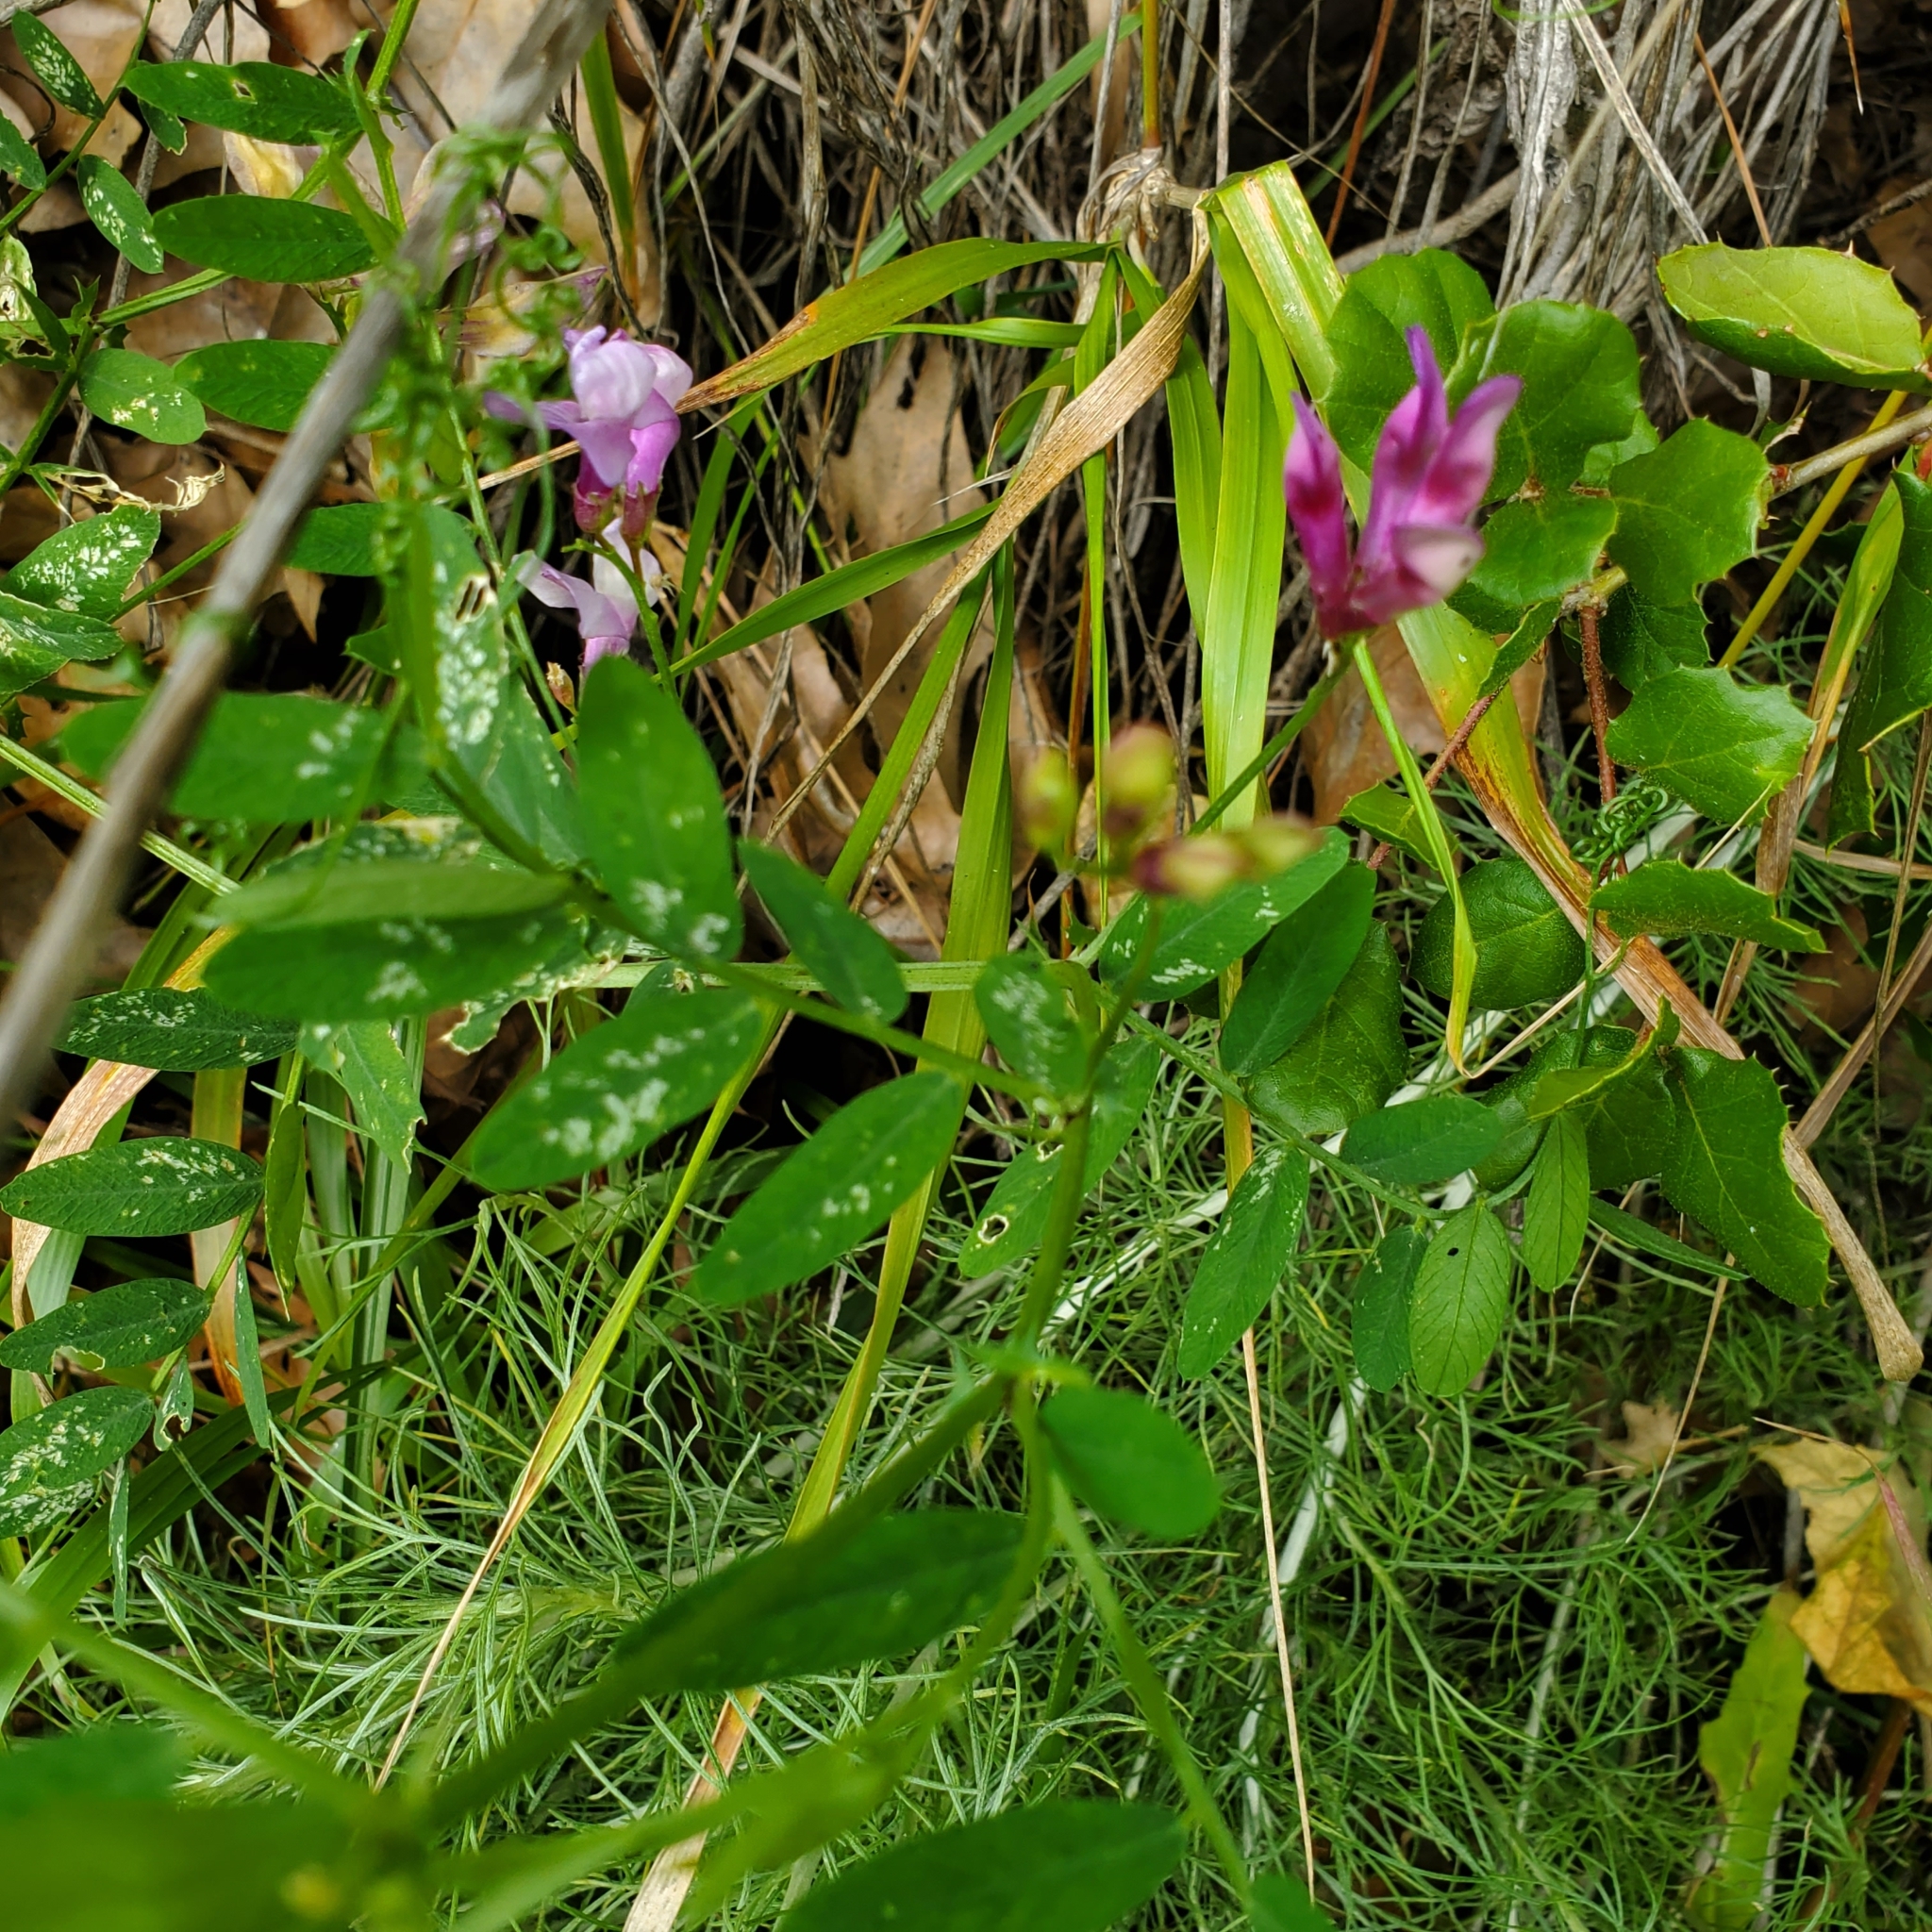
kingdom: Plantae
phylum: Tracheophyta
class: Magnoliopsida
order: Fabales
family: Fabaceae
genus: Vicia
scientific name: Vicia americana
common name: American vetch
